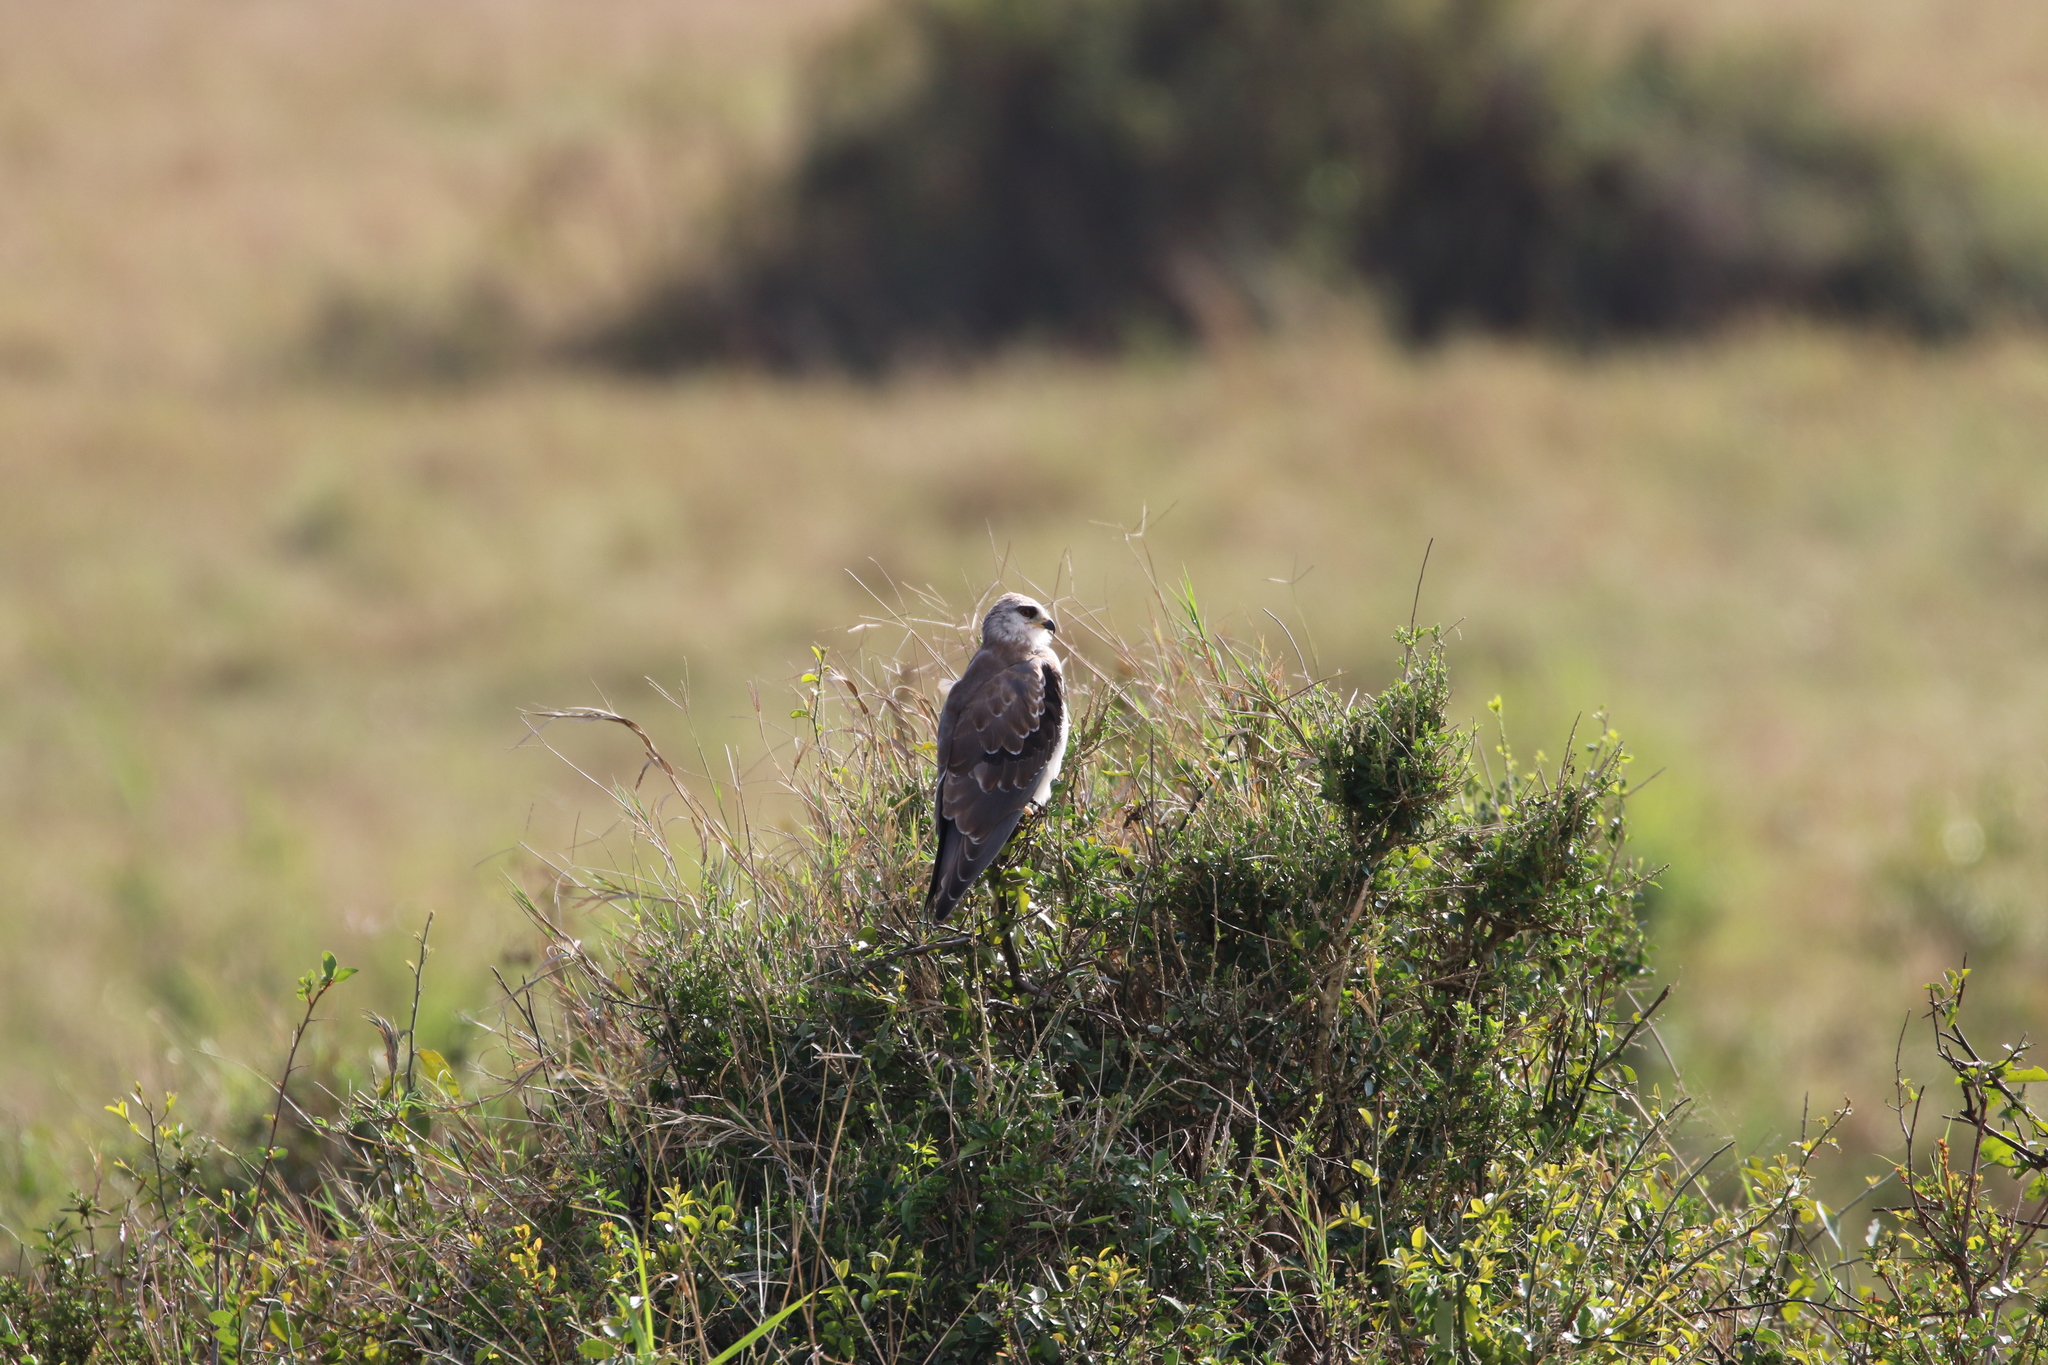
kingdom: Animalia
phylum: Chordata
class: Aves
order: Accipitriformes
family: Accipitridae
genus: Elanus
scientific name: Elanus caeruleus
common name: Black-winged kite
